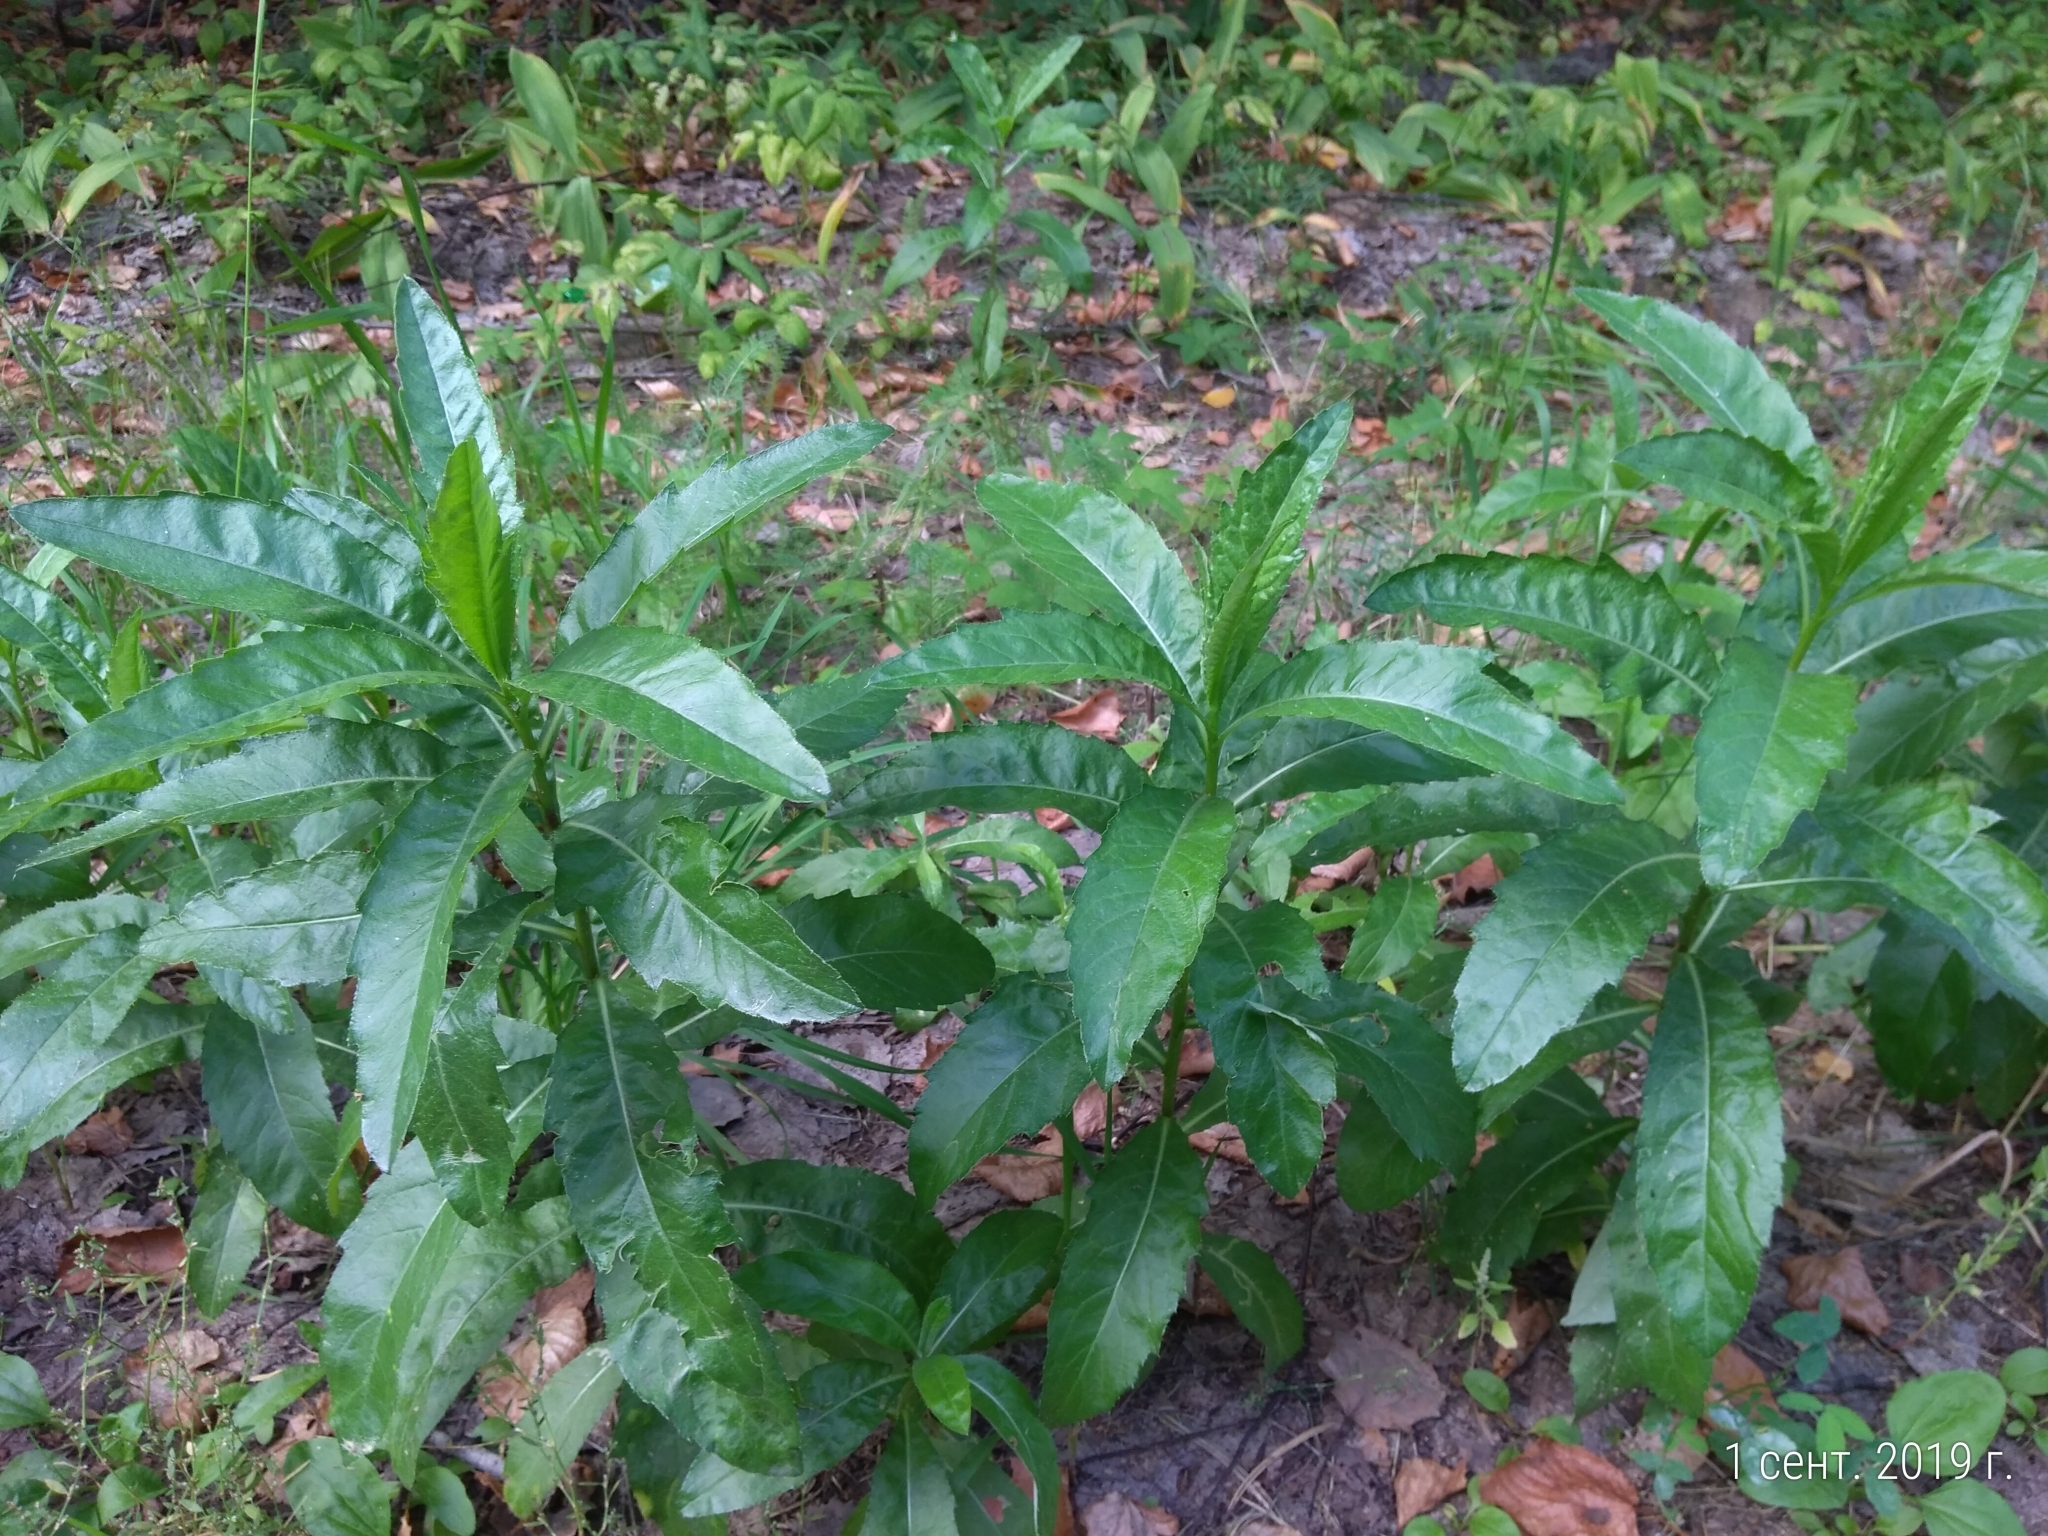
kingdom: Plantae
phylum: Tracheophyta
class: Magnoliopsida
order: Asterales
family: Asteraceae
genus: Cirsium
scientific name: Cirsium arvense
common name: Creeping thistle
